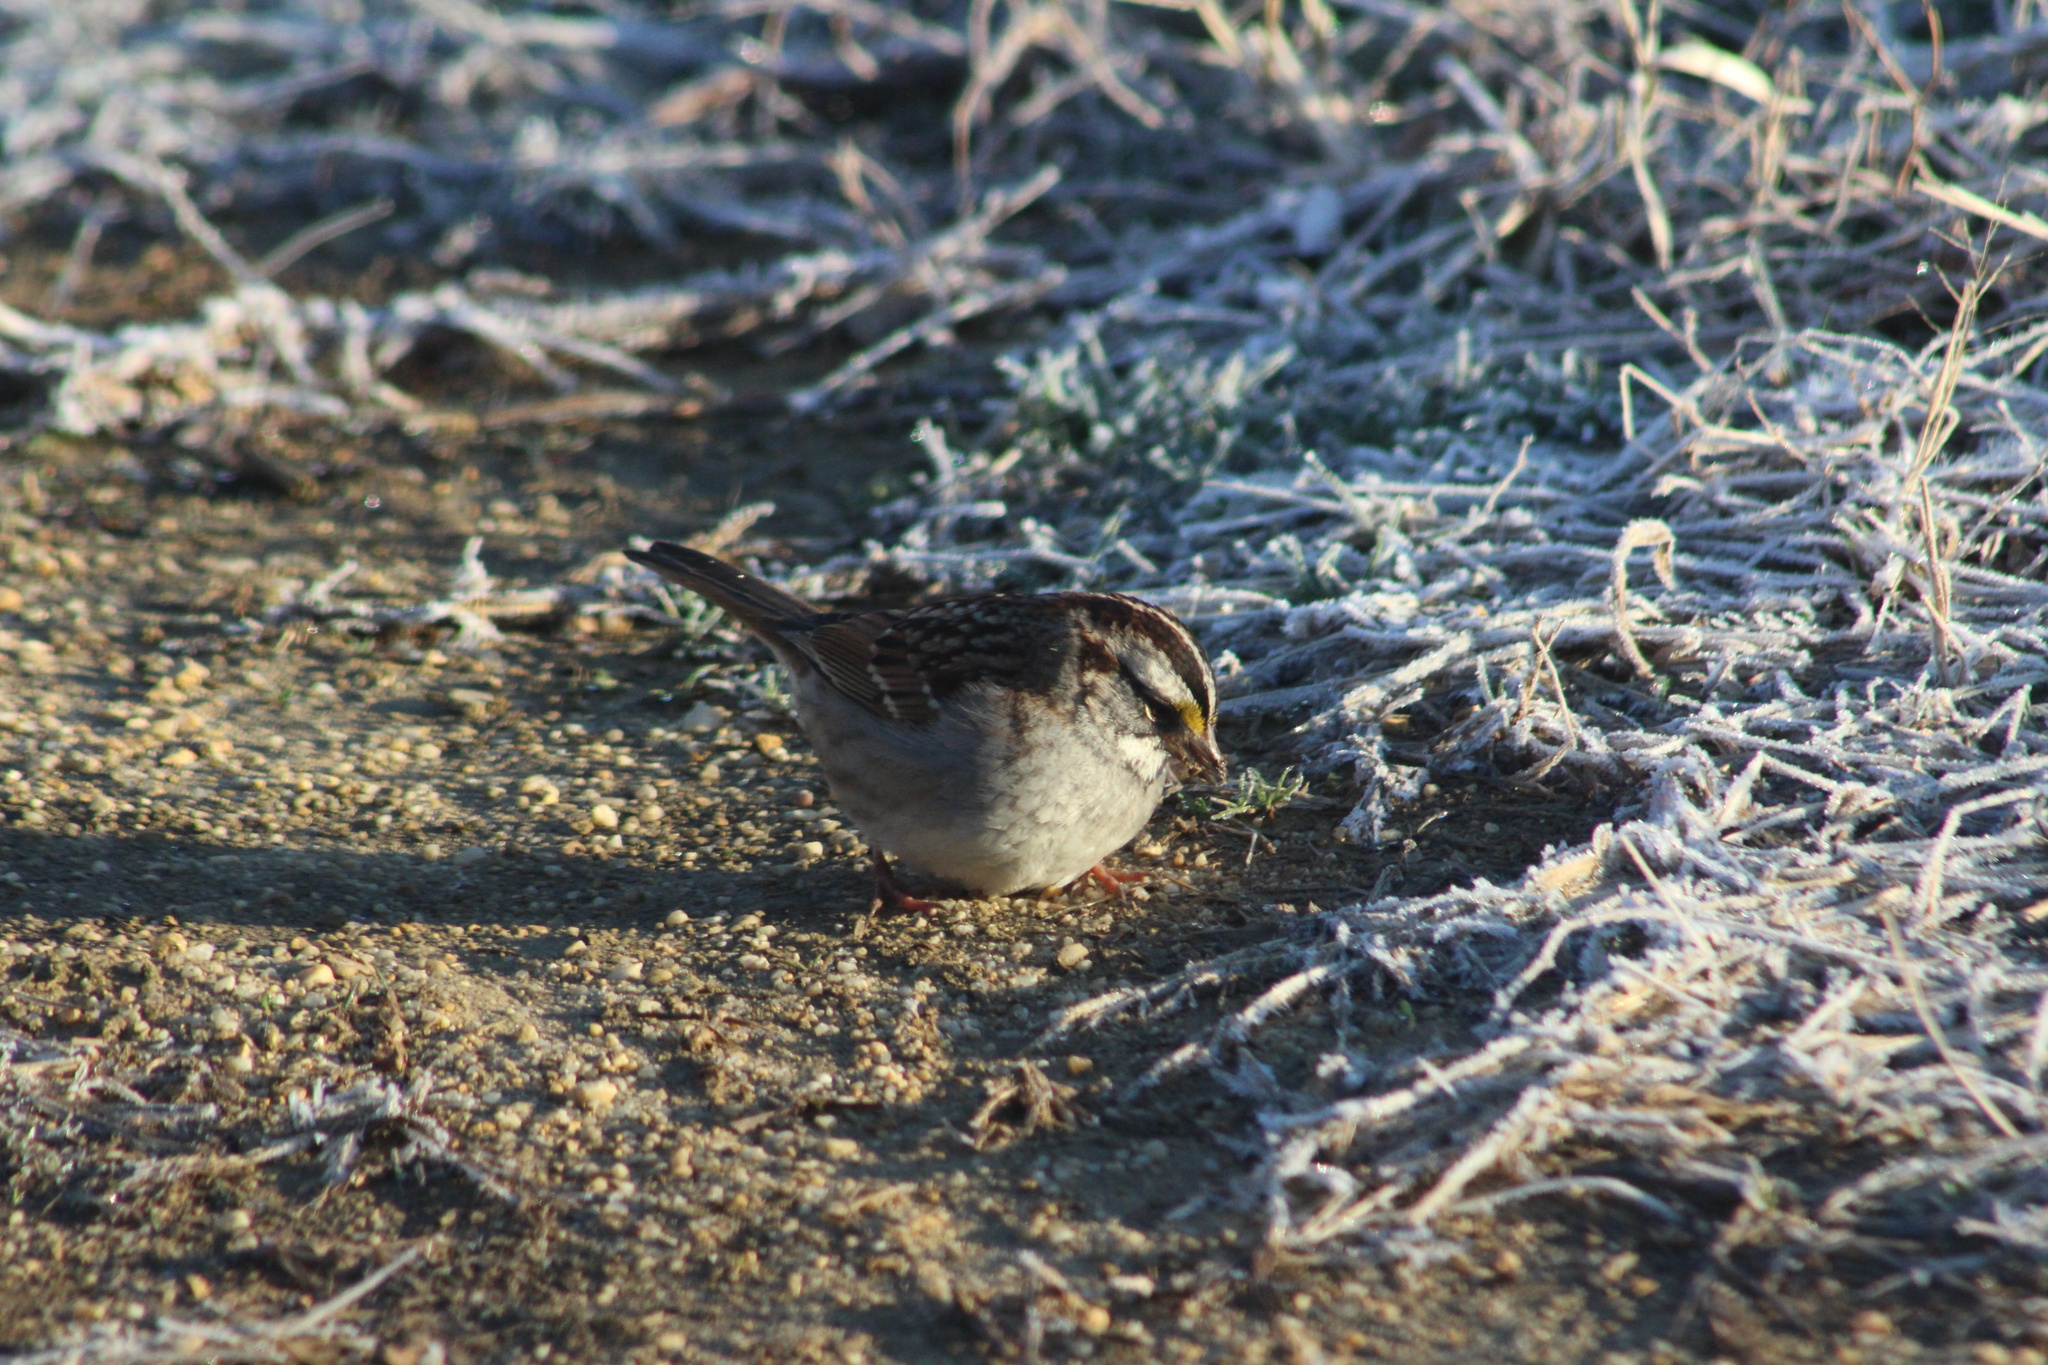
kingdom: Animalia
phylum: Chordata
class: Aves
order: Passeriformes
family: Passerellidae
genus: Zonotrichia
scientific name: Zonotrichia albicollis
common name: White-throated sparrow
